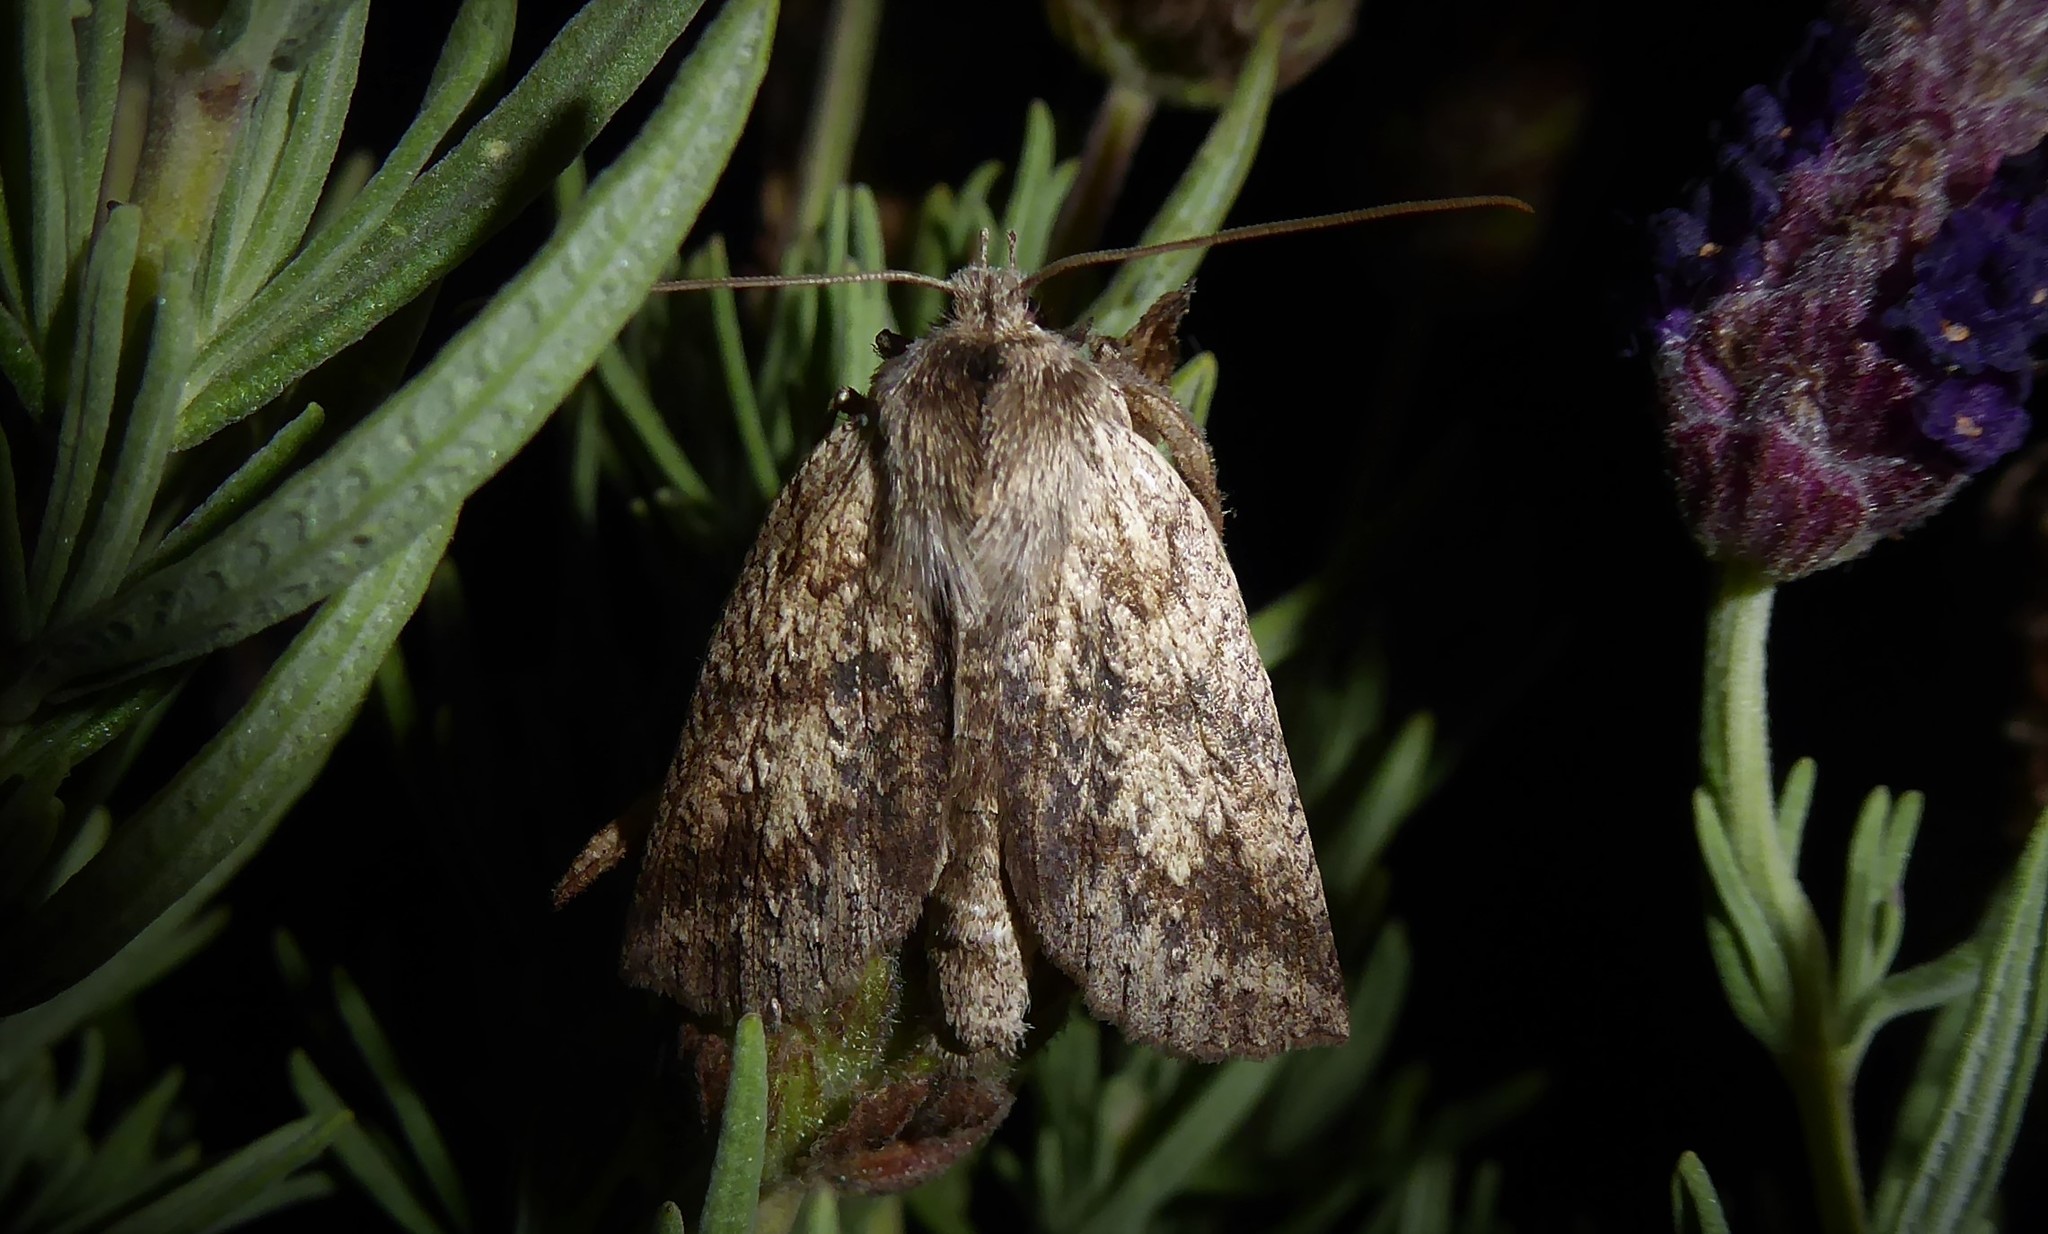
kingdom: Animalia
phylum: Arthropoda
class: Insecta
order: Lepidoptera
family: Geometridae
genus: Declana
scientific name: Declana leptomera
